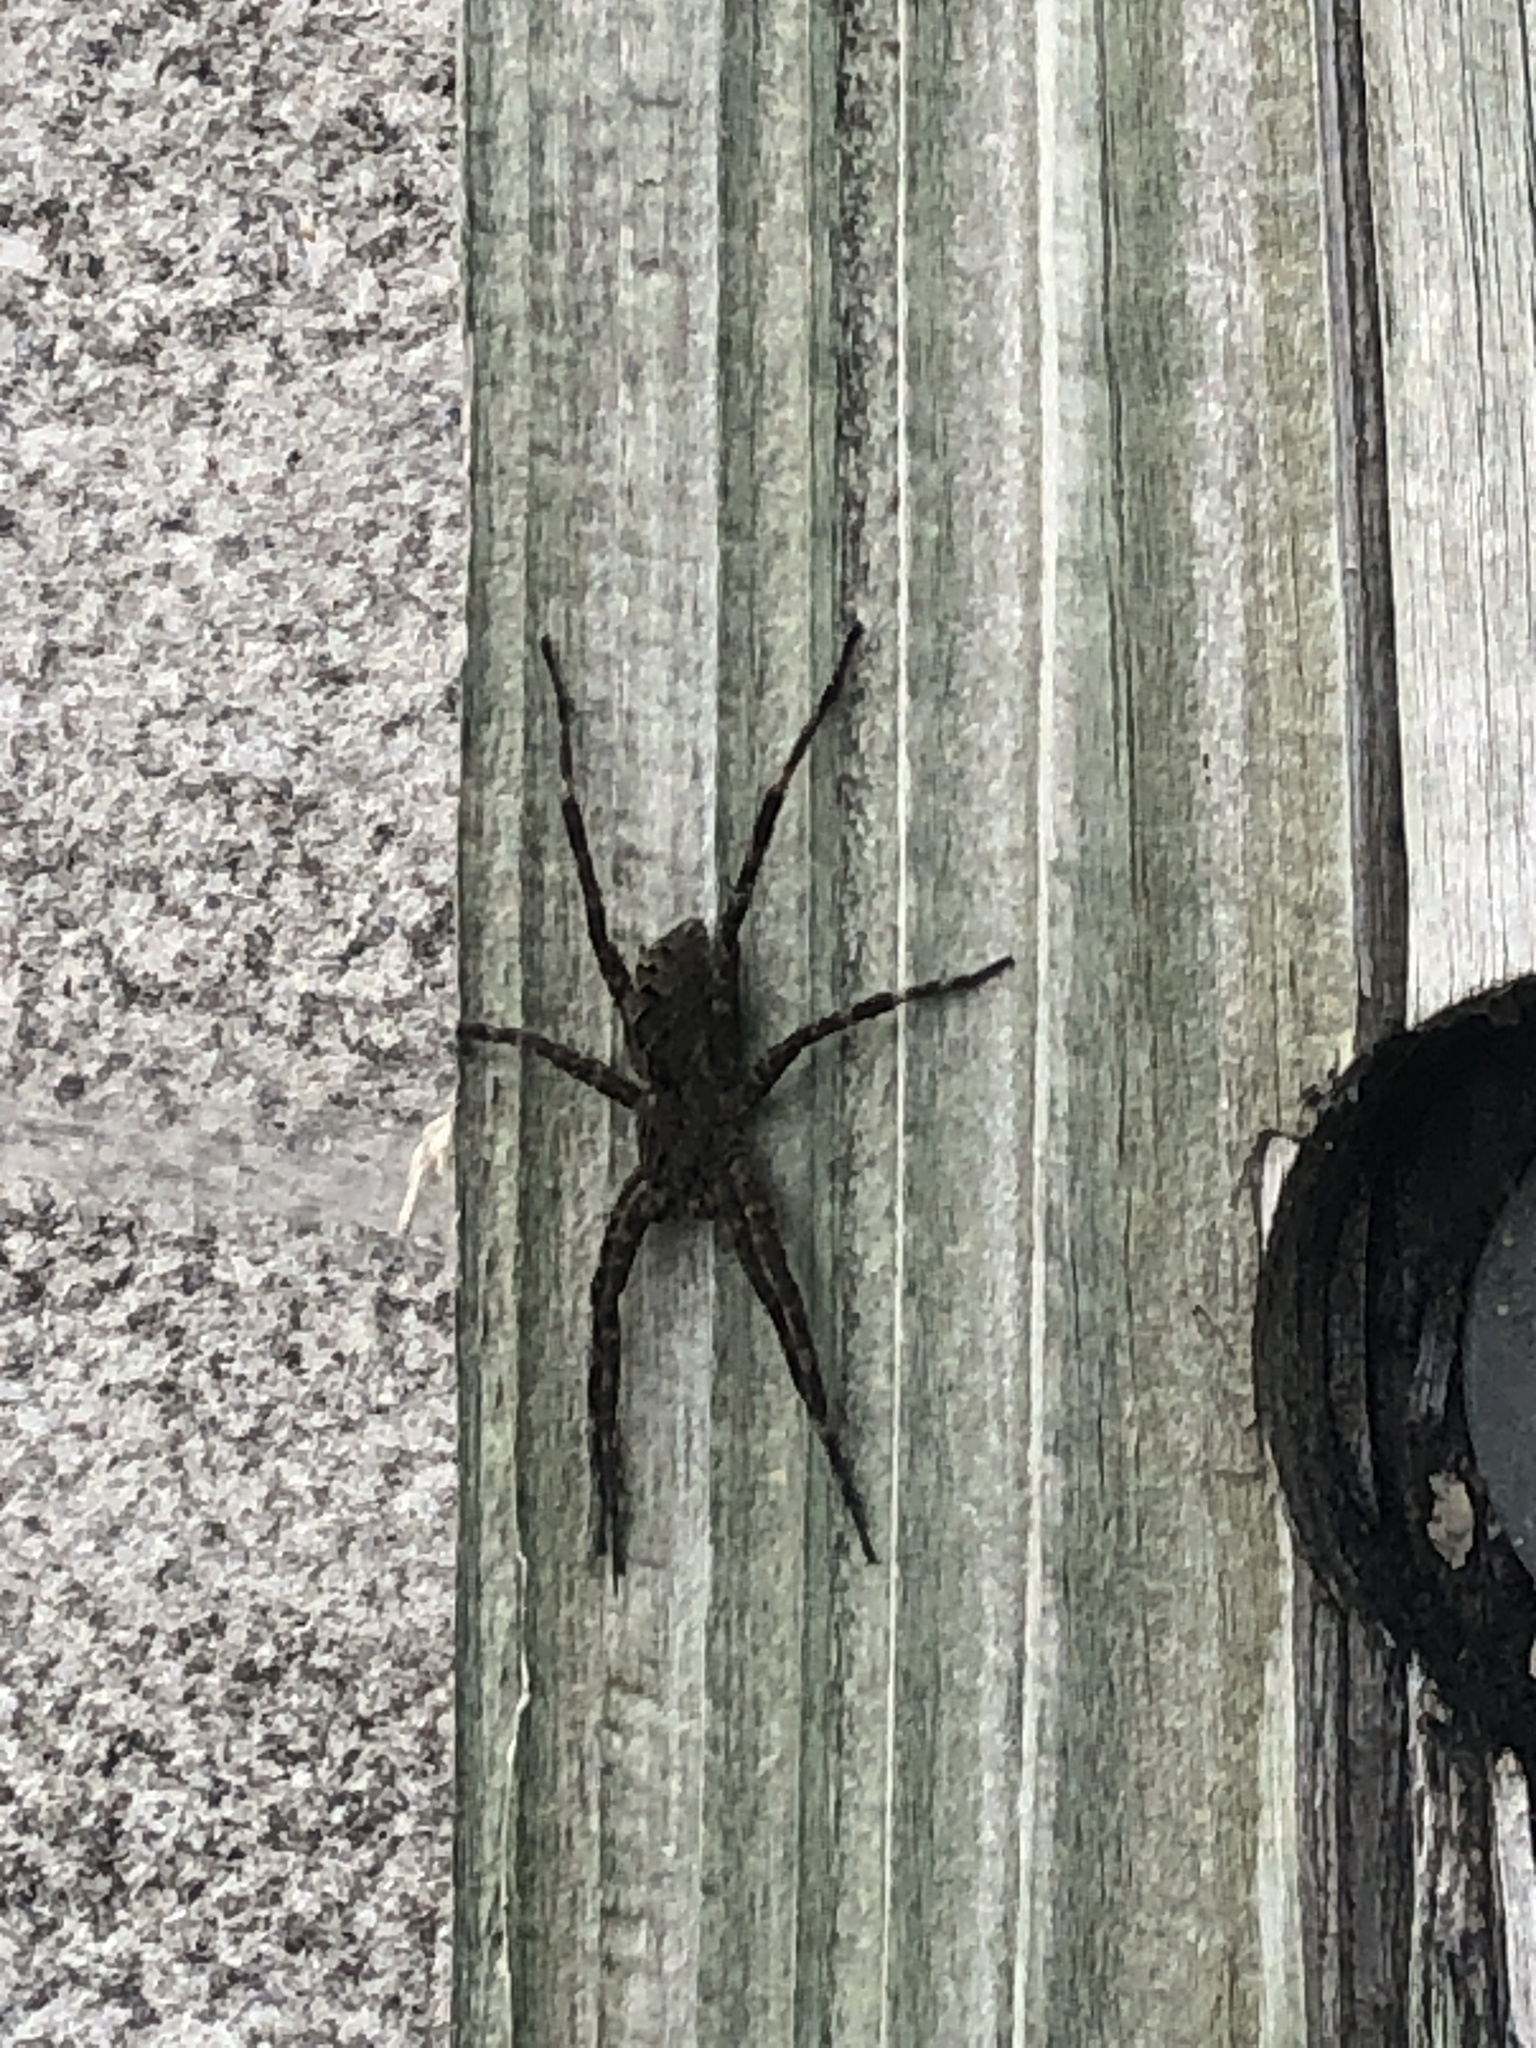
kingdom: Animalia
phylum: Arthropoda
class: Arachnida
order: Araneae
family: Pisauridae
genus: Dolomedes
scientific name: Dolomedes tenebrosus
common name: Dark fishing spider
